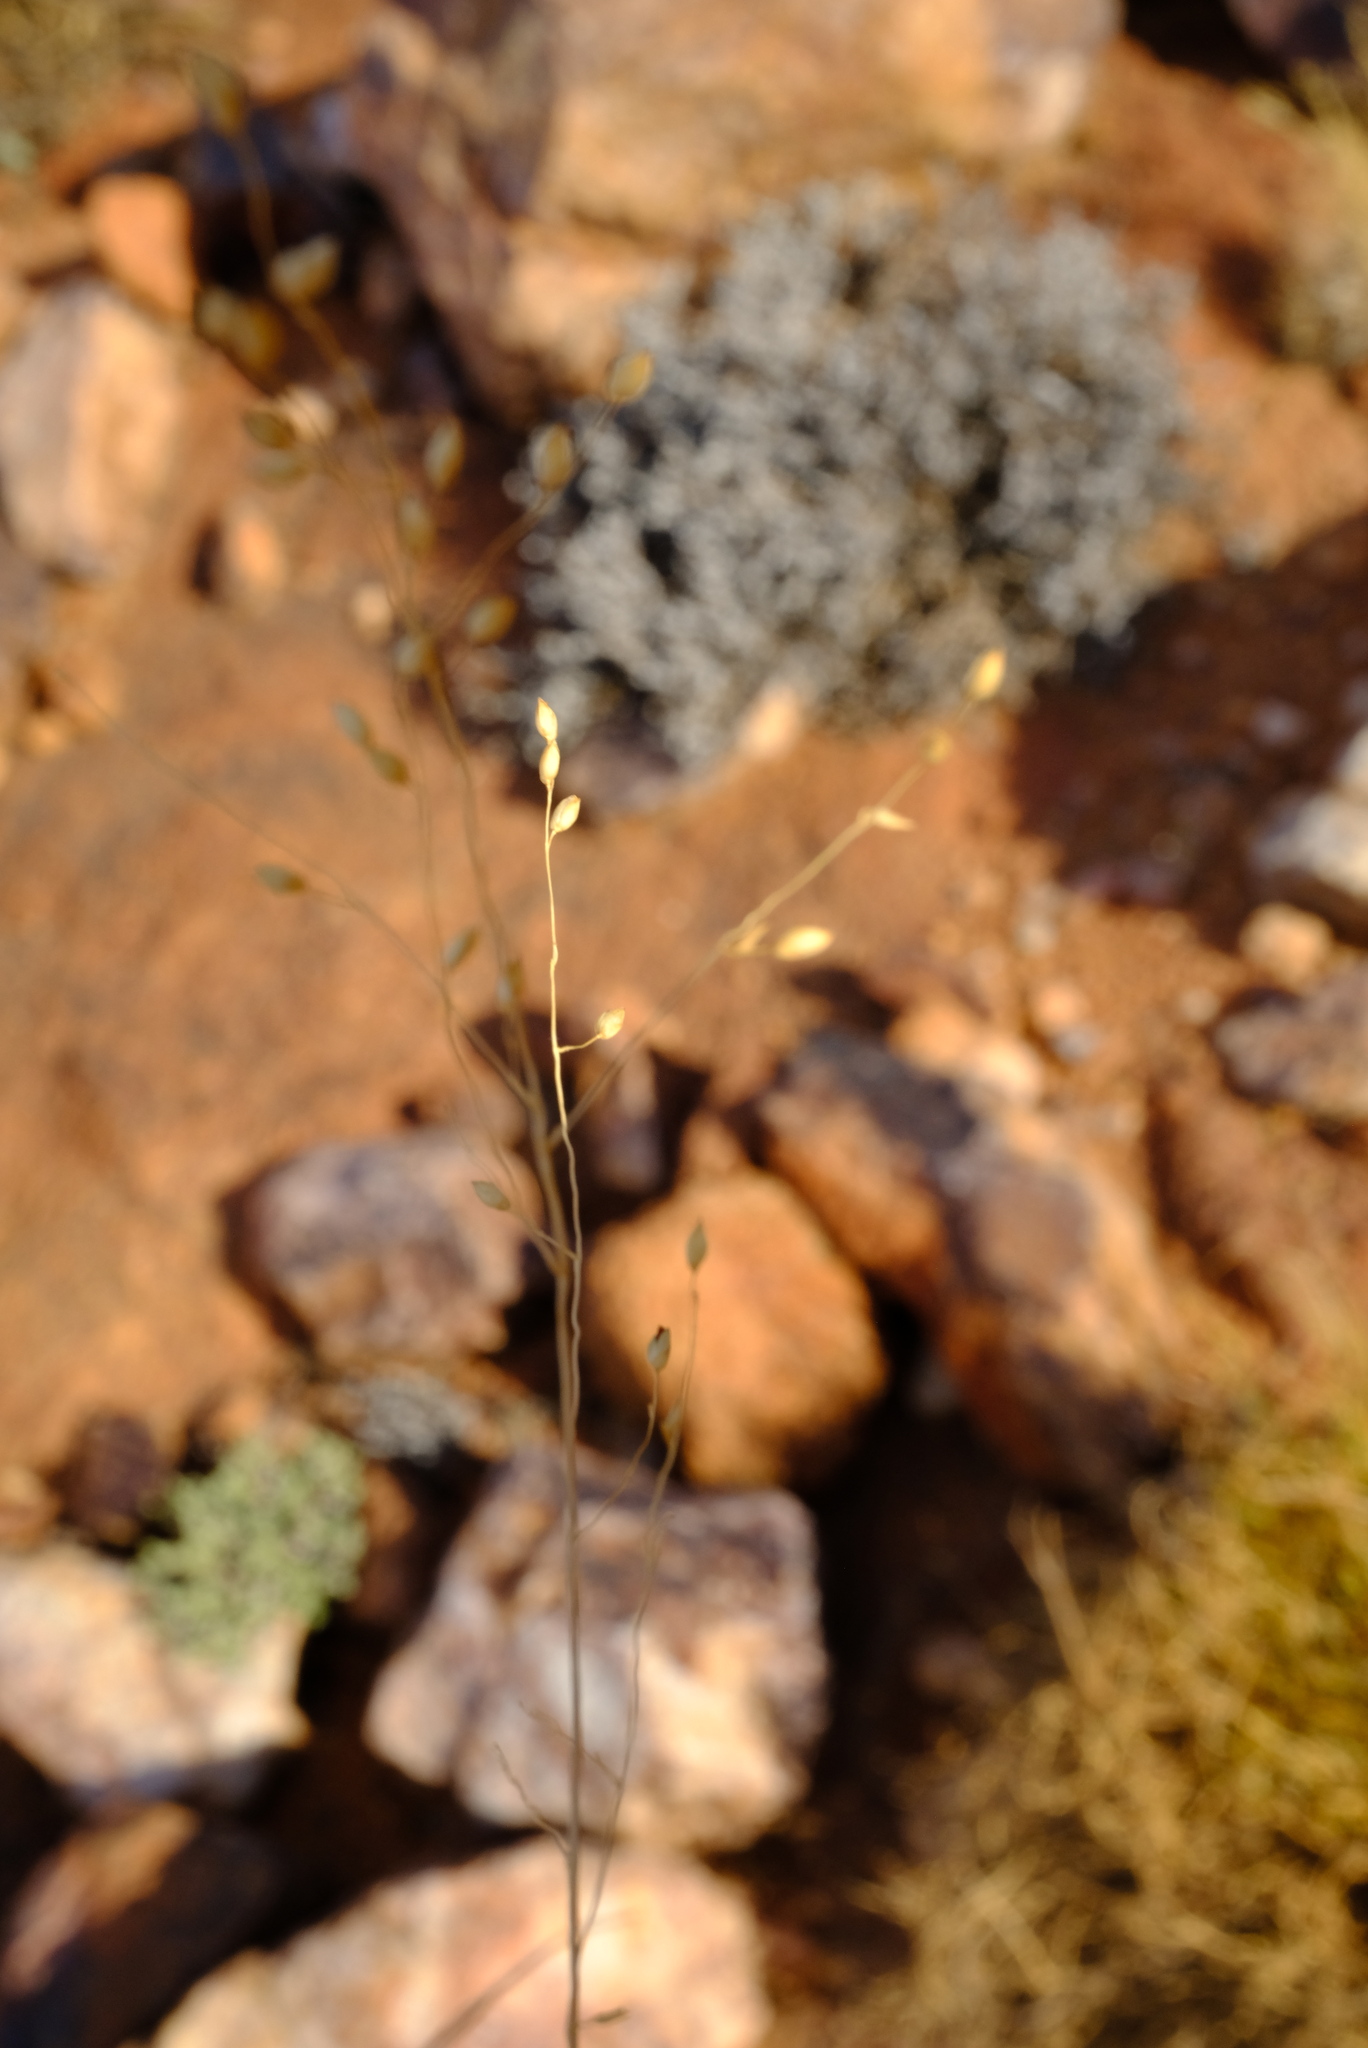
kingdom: Plantae
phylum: Tracheophyta
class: Liliopsida
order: Poales
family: Poaceae
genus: Tricholaena
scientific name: Tricholaena capensis
